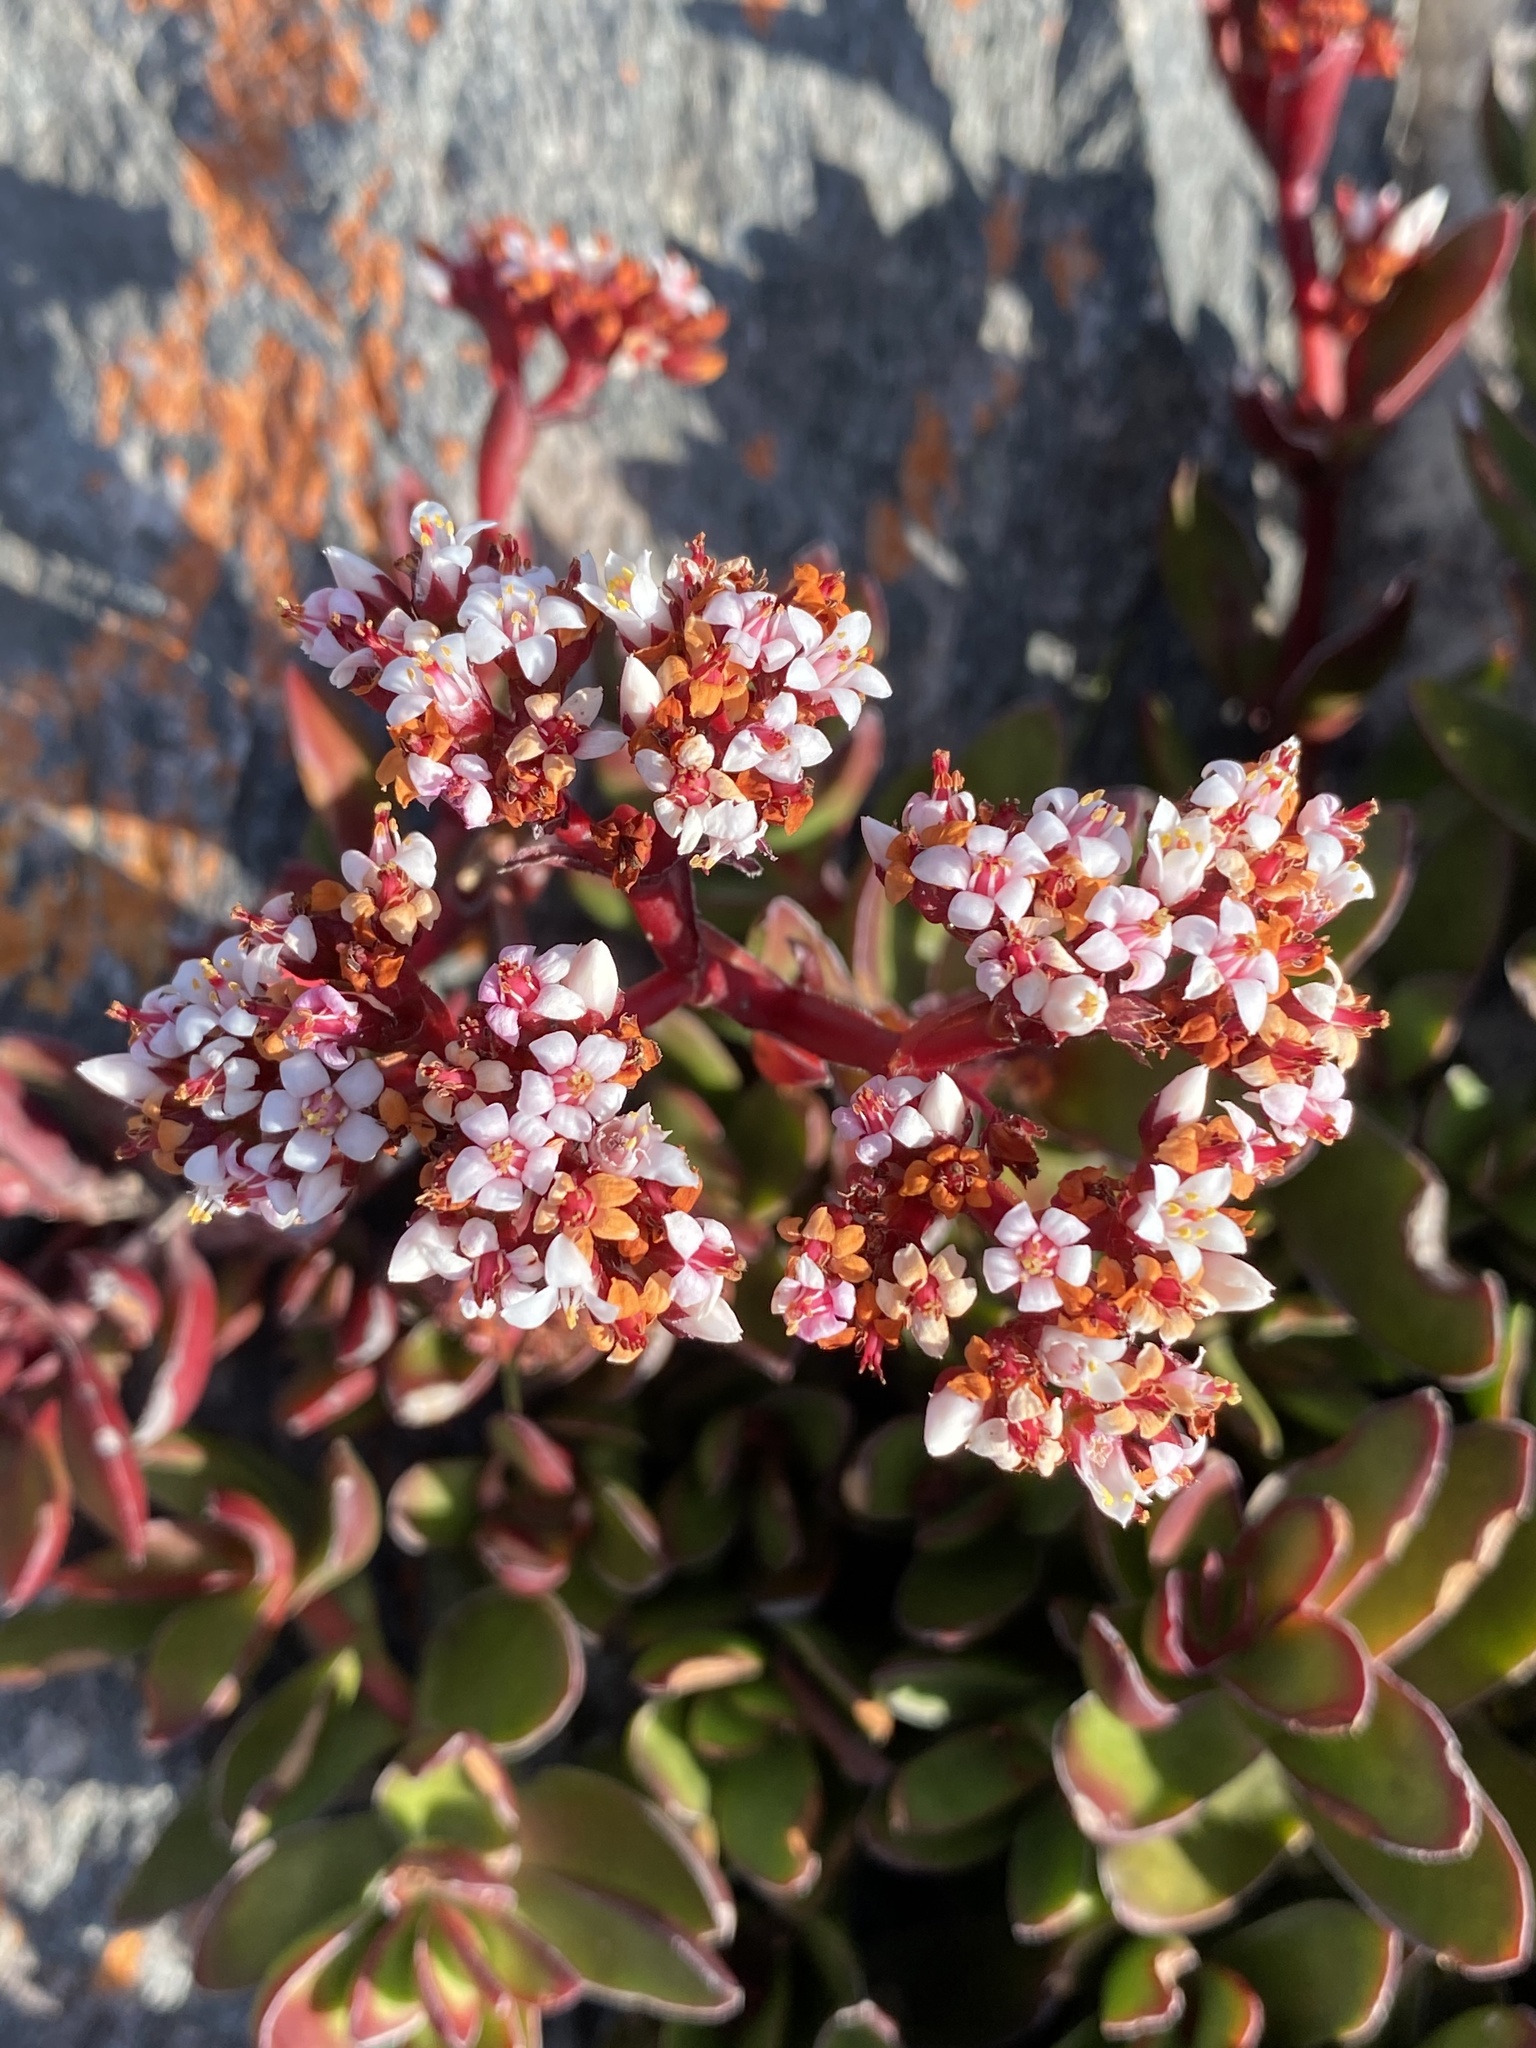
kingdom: Plantae
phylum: Tracheophyta
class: Magnoliopsida
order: Saxifragales
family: Crassulaceae
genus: Crassula
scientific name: Crassula rubricaulis
